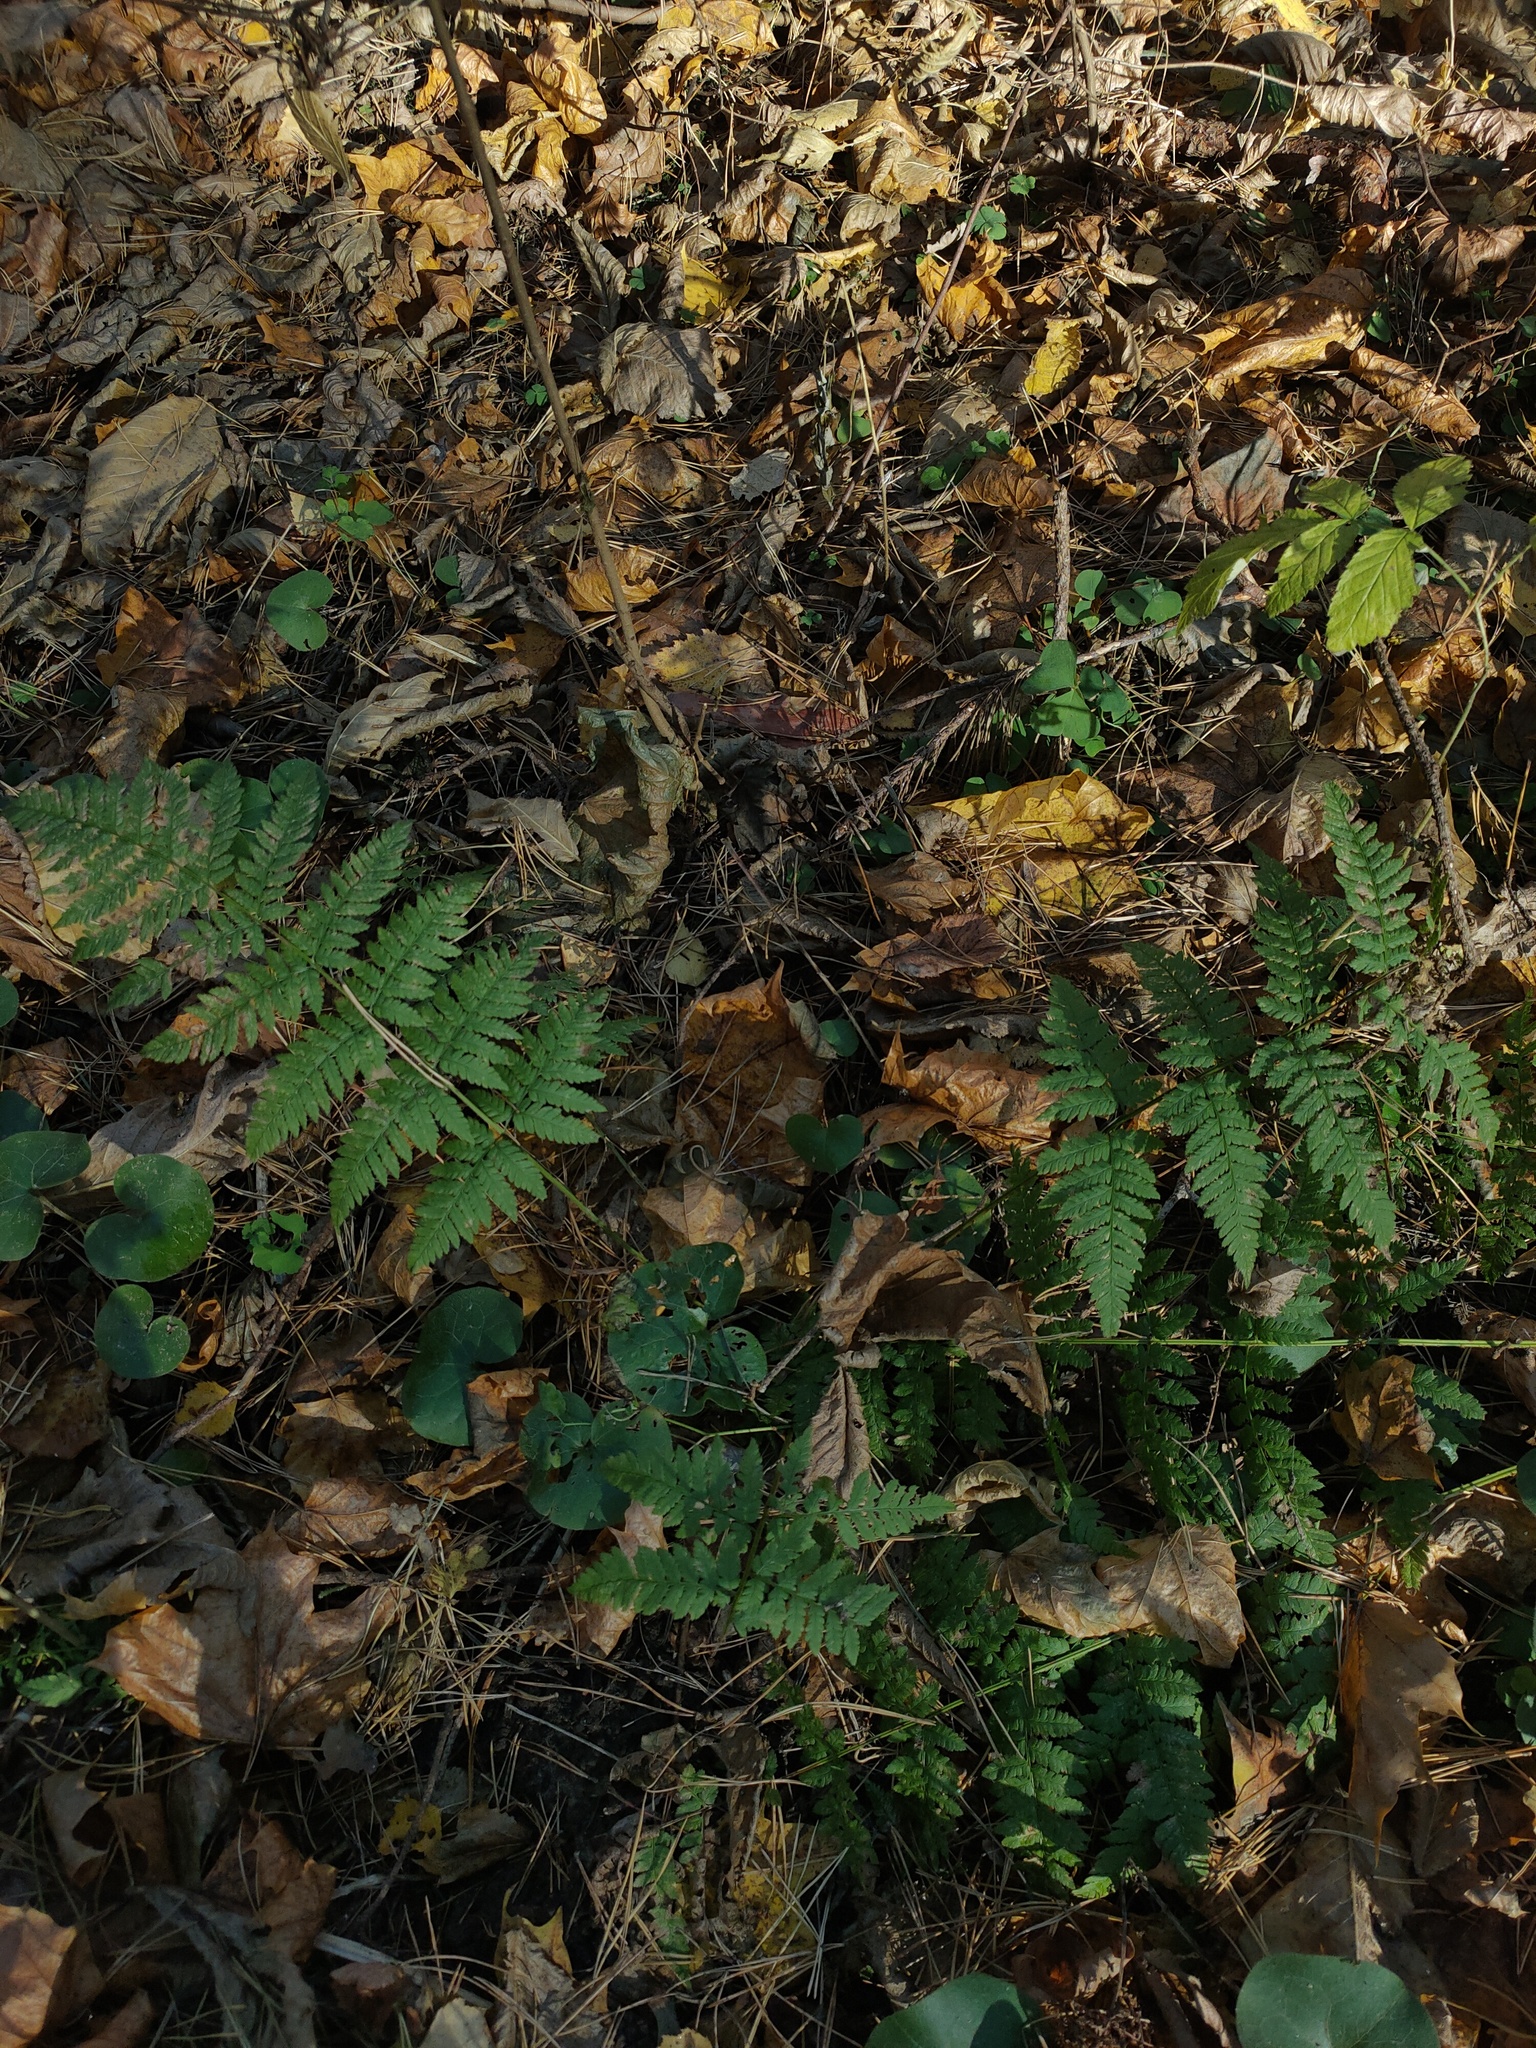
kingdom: Plantae
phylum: Tracheophyta
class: Polypodiopsida
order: Polypodiales
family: Dryopteridaceae
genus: Dryopteris
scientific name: Dryopteris carthusiana
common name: Narrow buckler-fern
